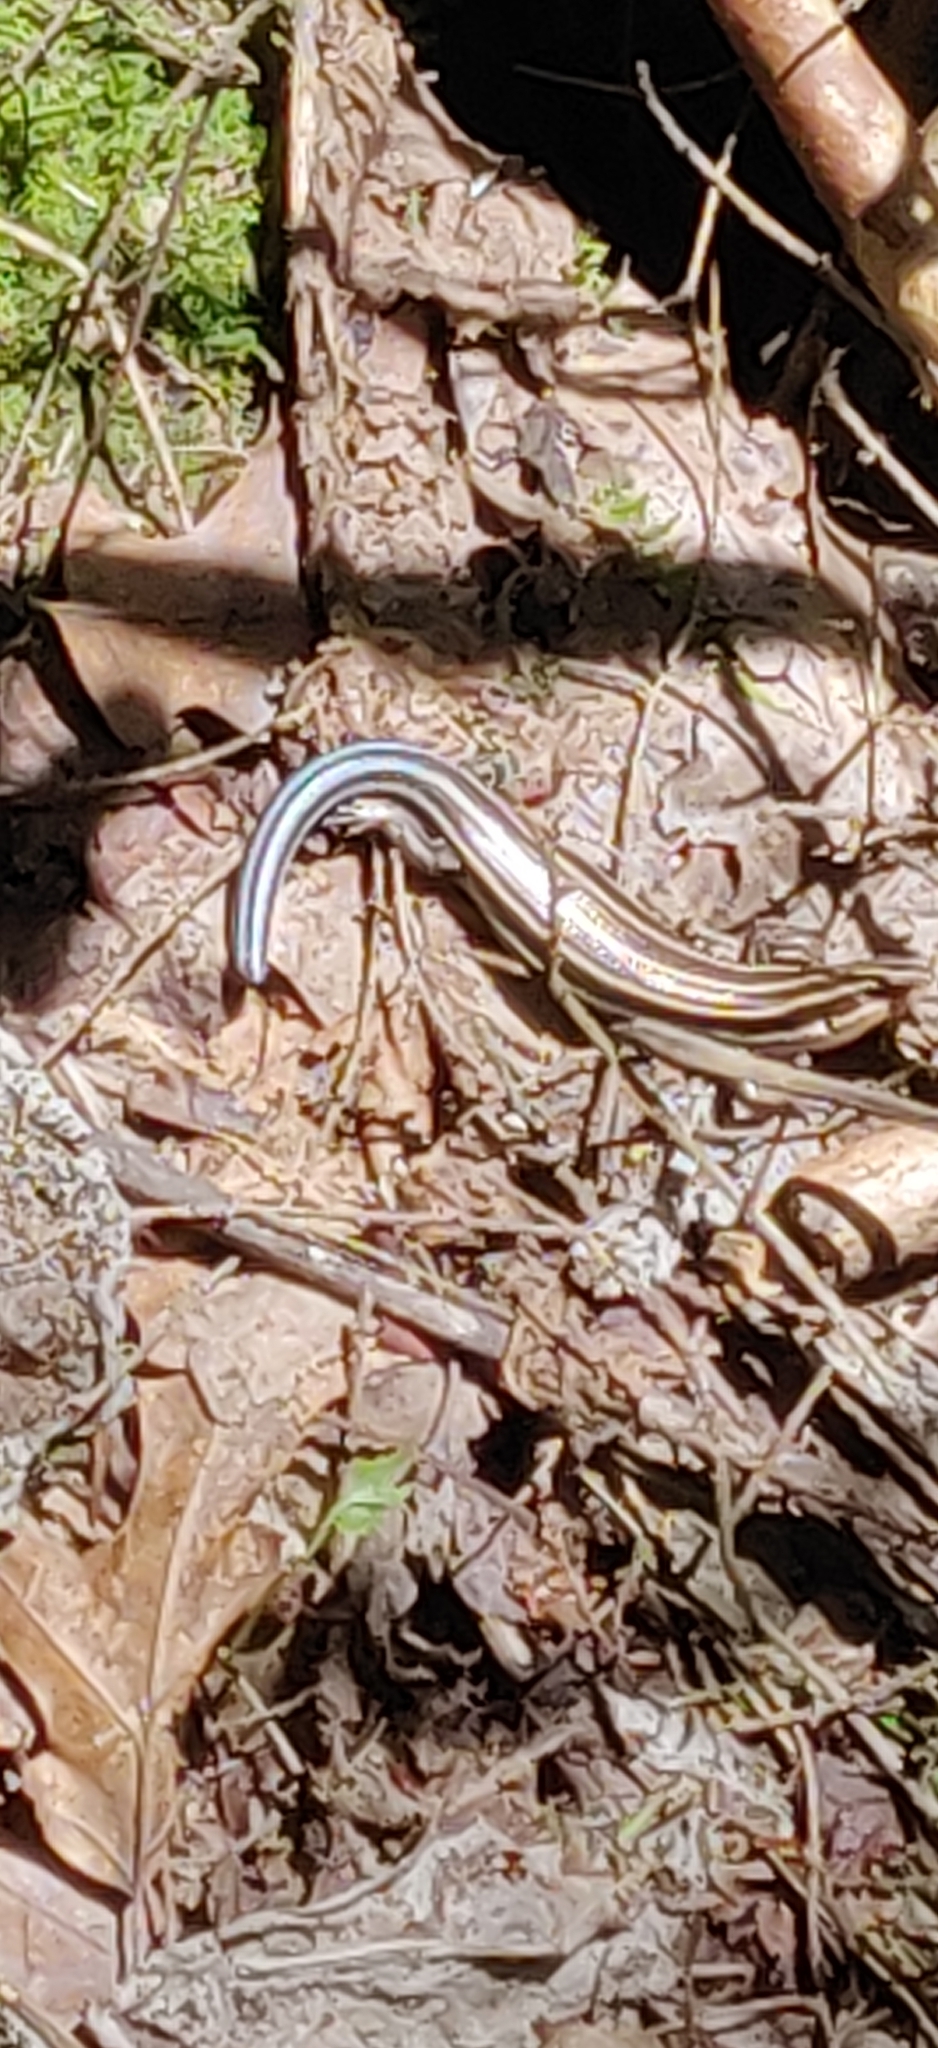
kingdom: Animalia
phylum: Chordata
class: Squamata
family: Scincidae
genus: Plestiodon
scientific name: Plestiodon fasciatus
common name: Five-lined skink
